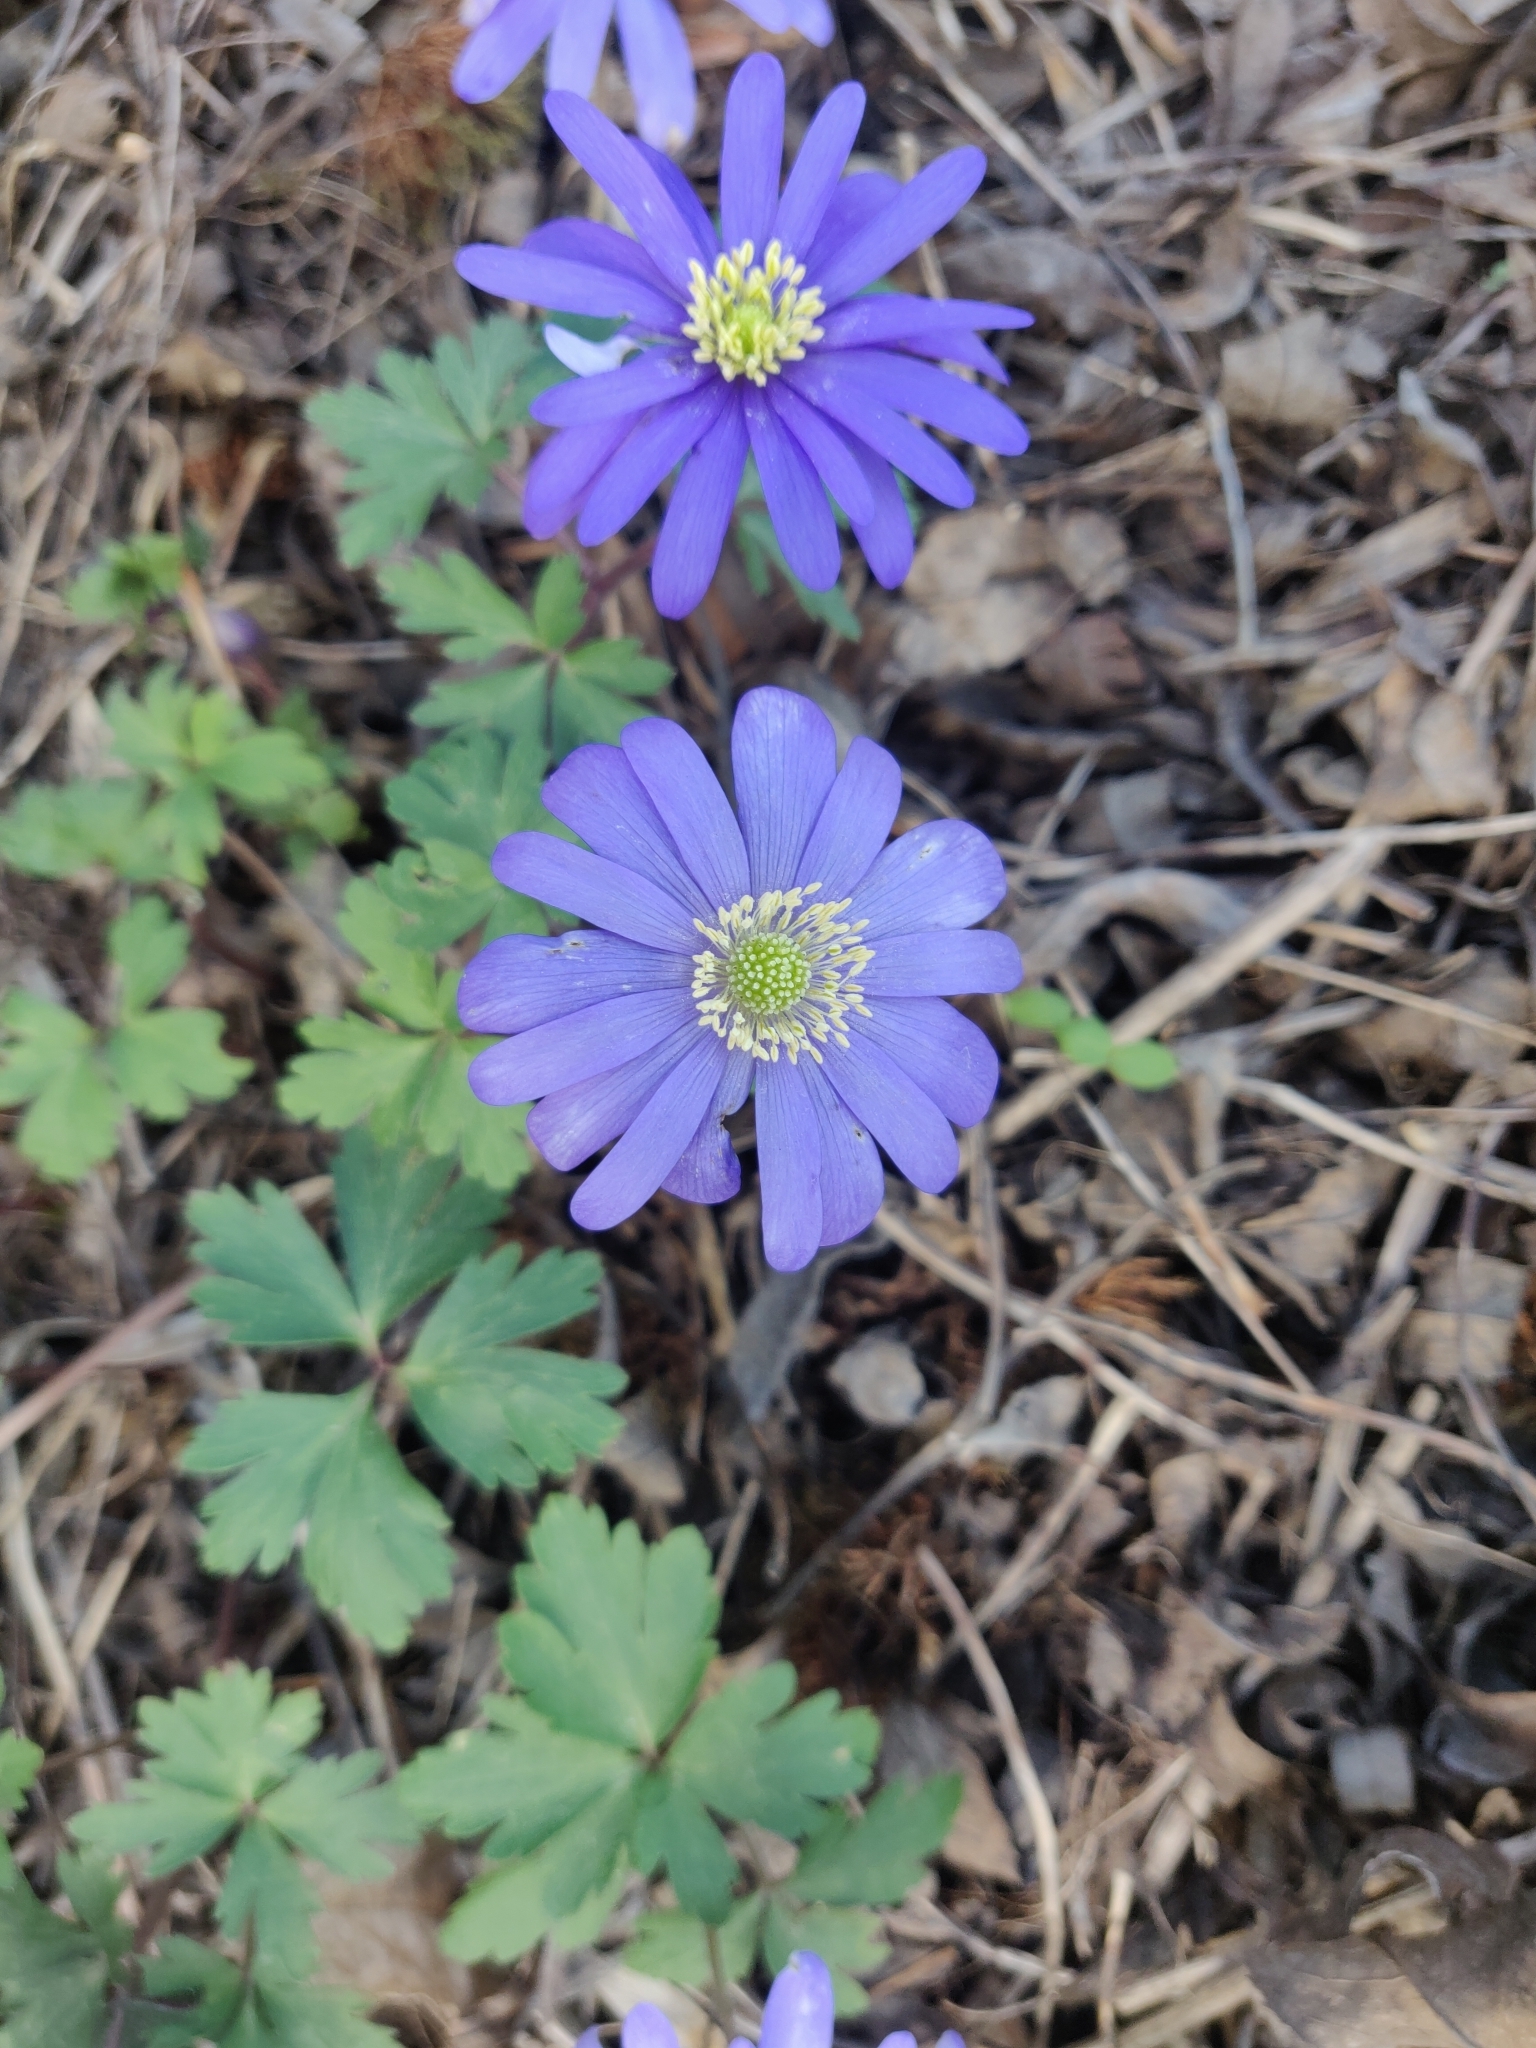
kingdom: Plantae
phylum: Tracheophyta
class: Magnoliopsida
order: Ranunculales
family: Ranunculaceae
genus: Anemone
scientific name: Anemone blanda
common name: Balkan anemone
